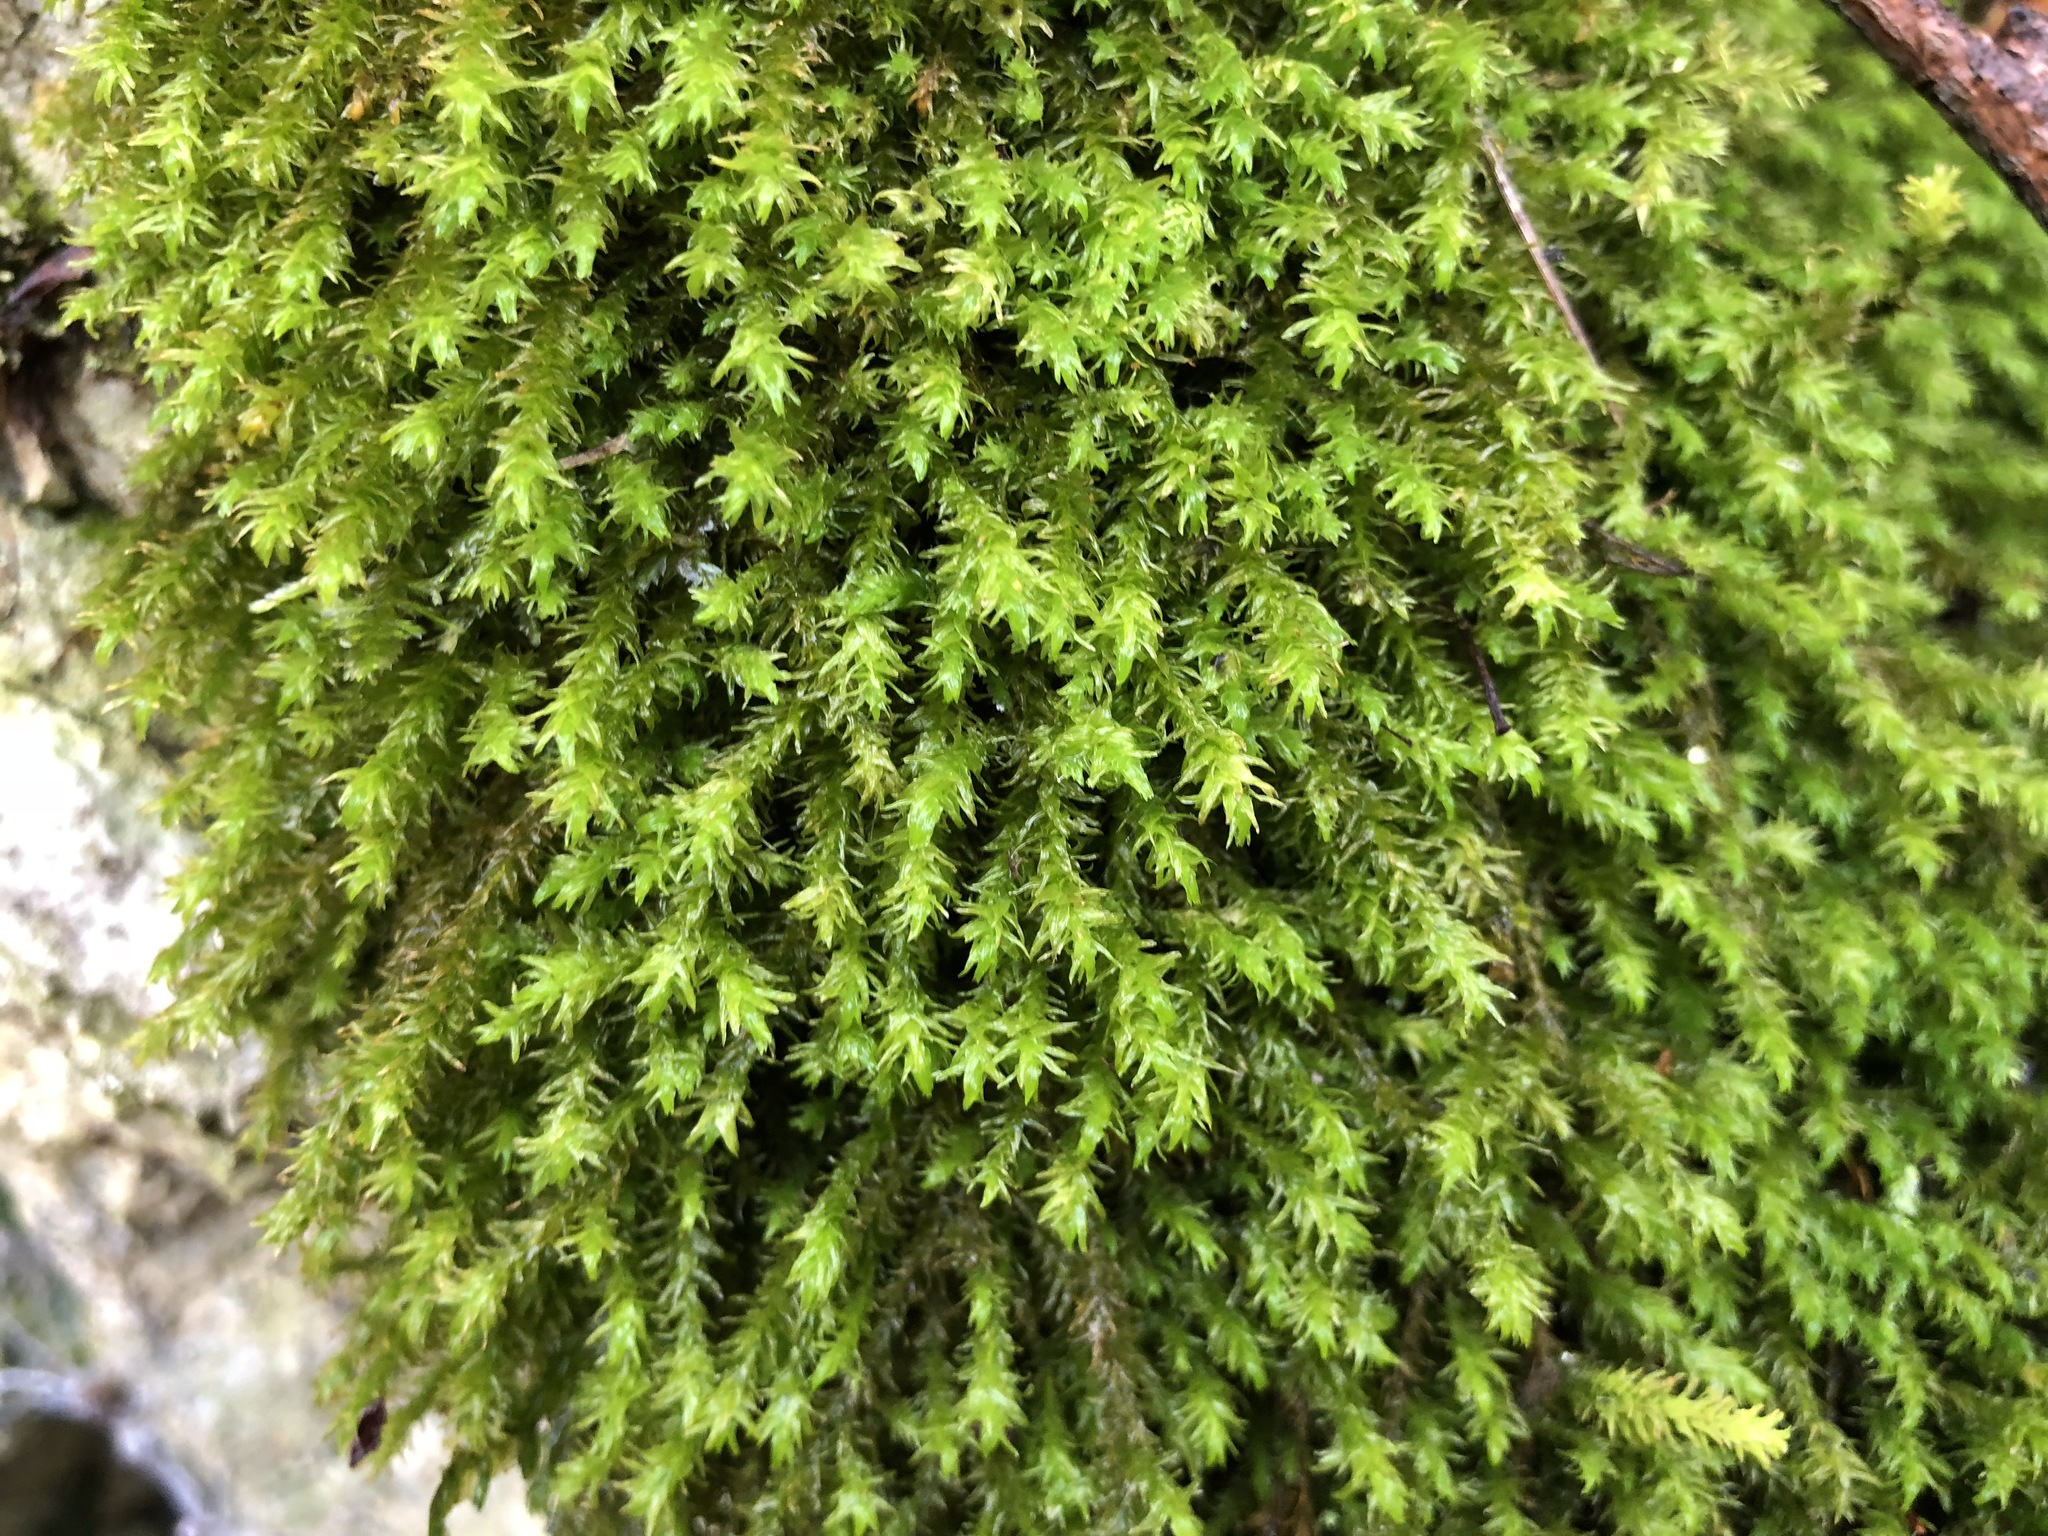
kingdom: Plantae
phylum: Bryophyta
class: Bryopsida
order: Hypnales
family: Anomodontaceae
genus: Anomodon
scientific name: Anomodon viticulosus
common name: Tall anomodon
